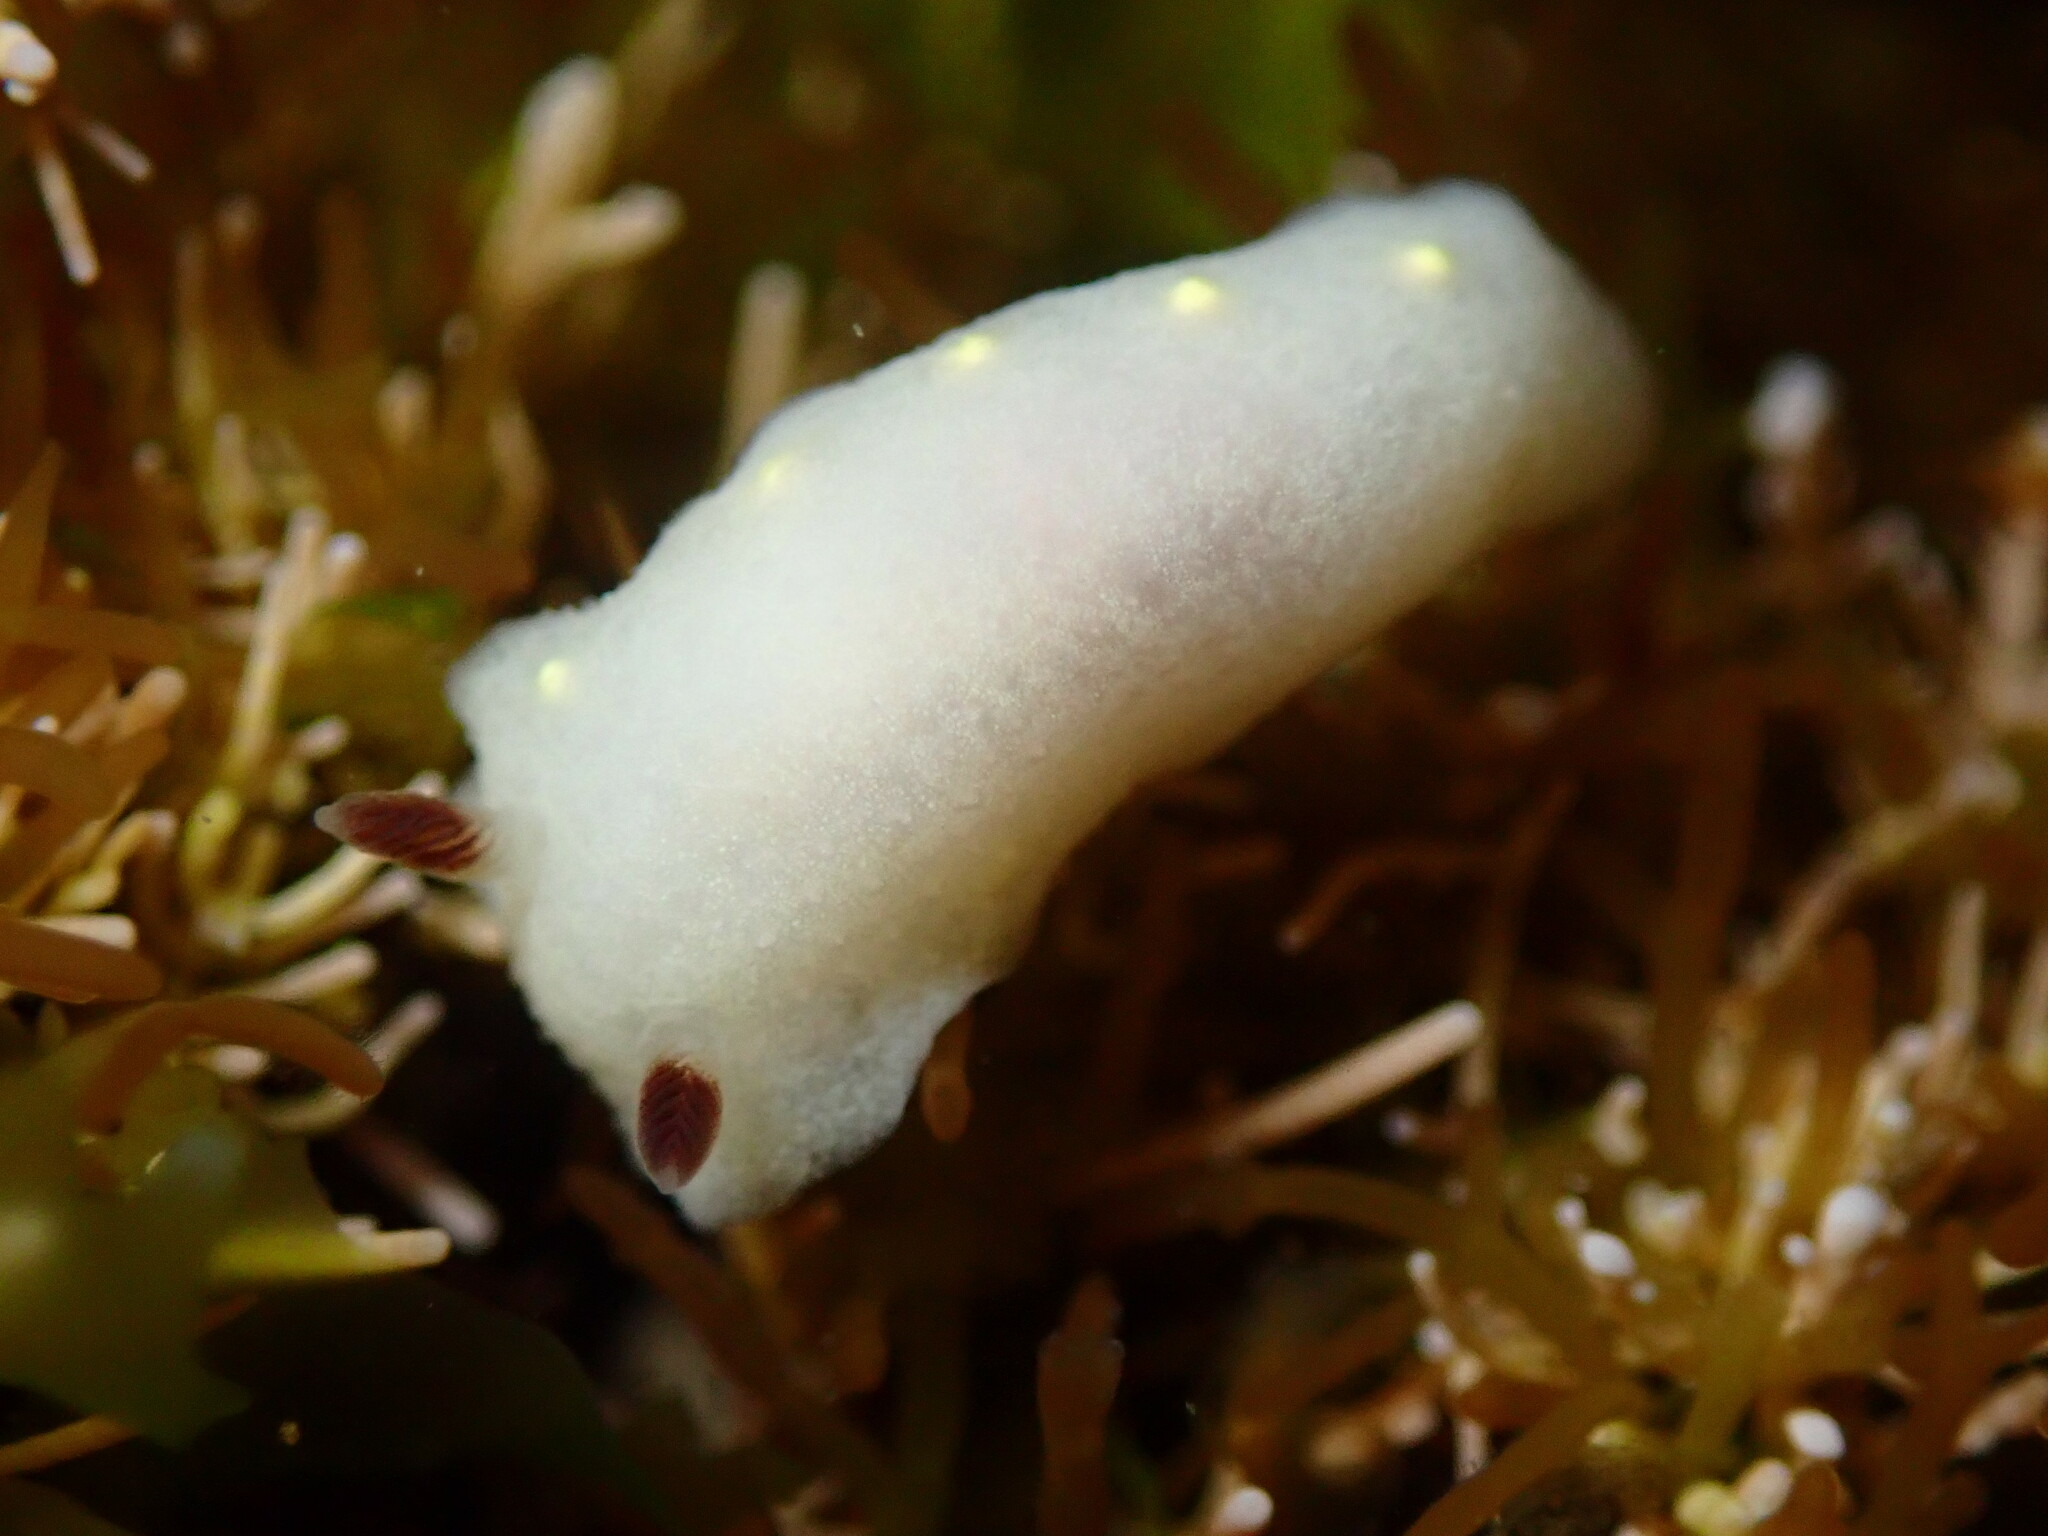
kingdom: Animalia
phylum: Mollusca
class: Gastropoda
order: Nudibranchia
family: Cadlinidae
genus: Cadlina
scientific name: Cadlina flavomaculata
